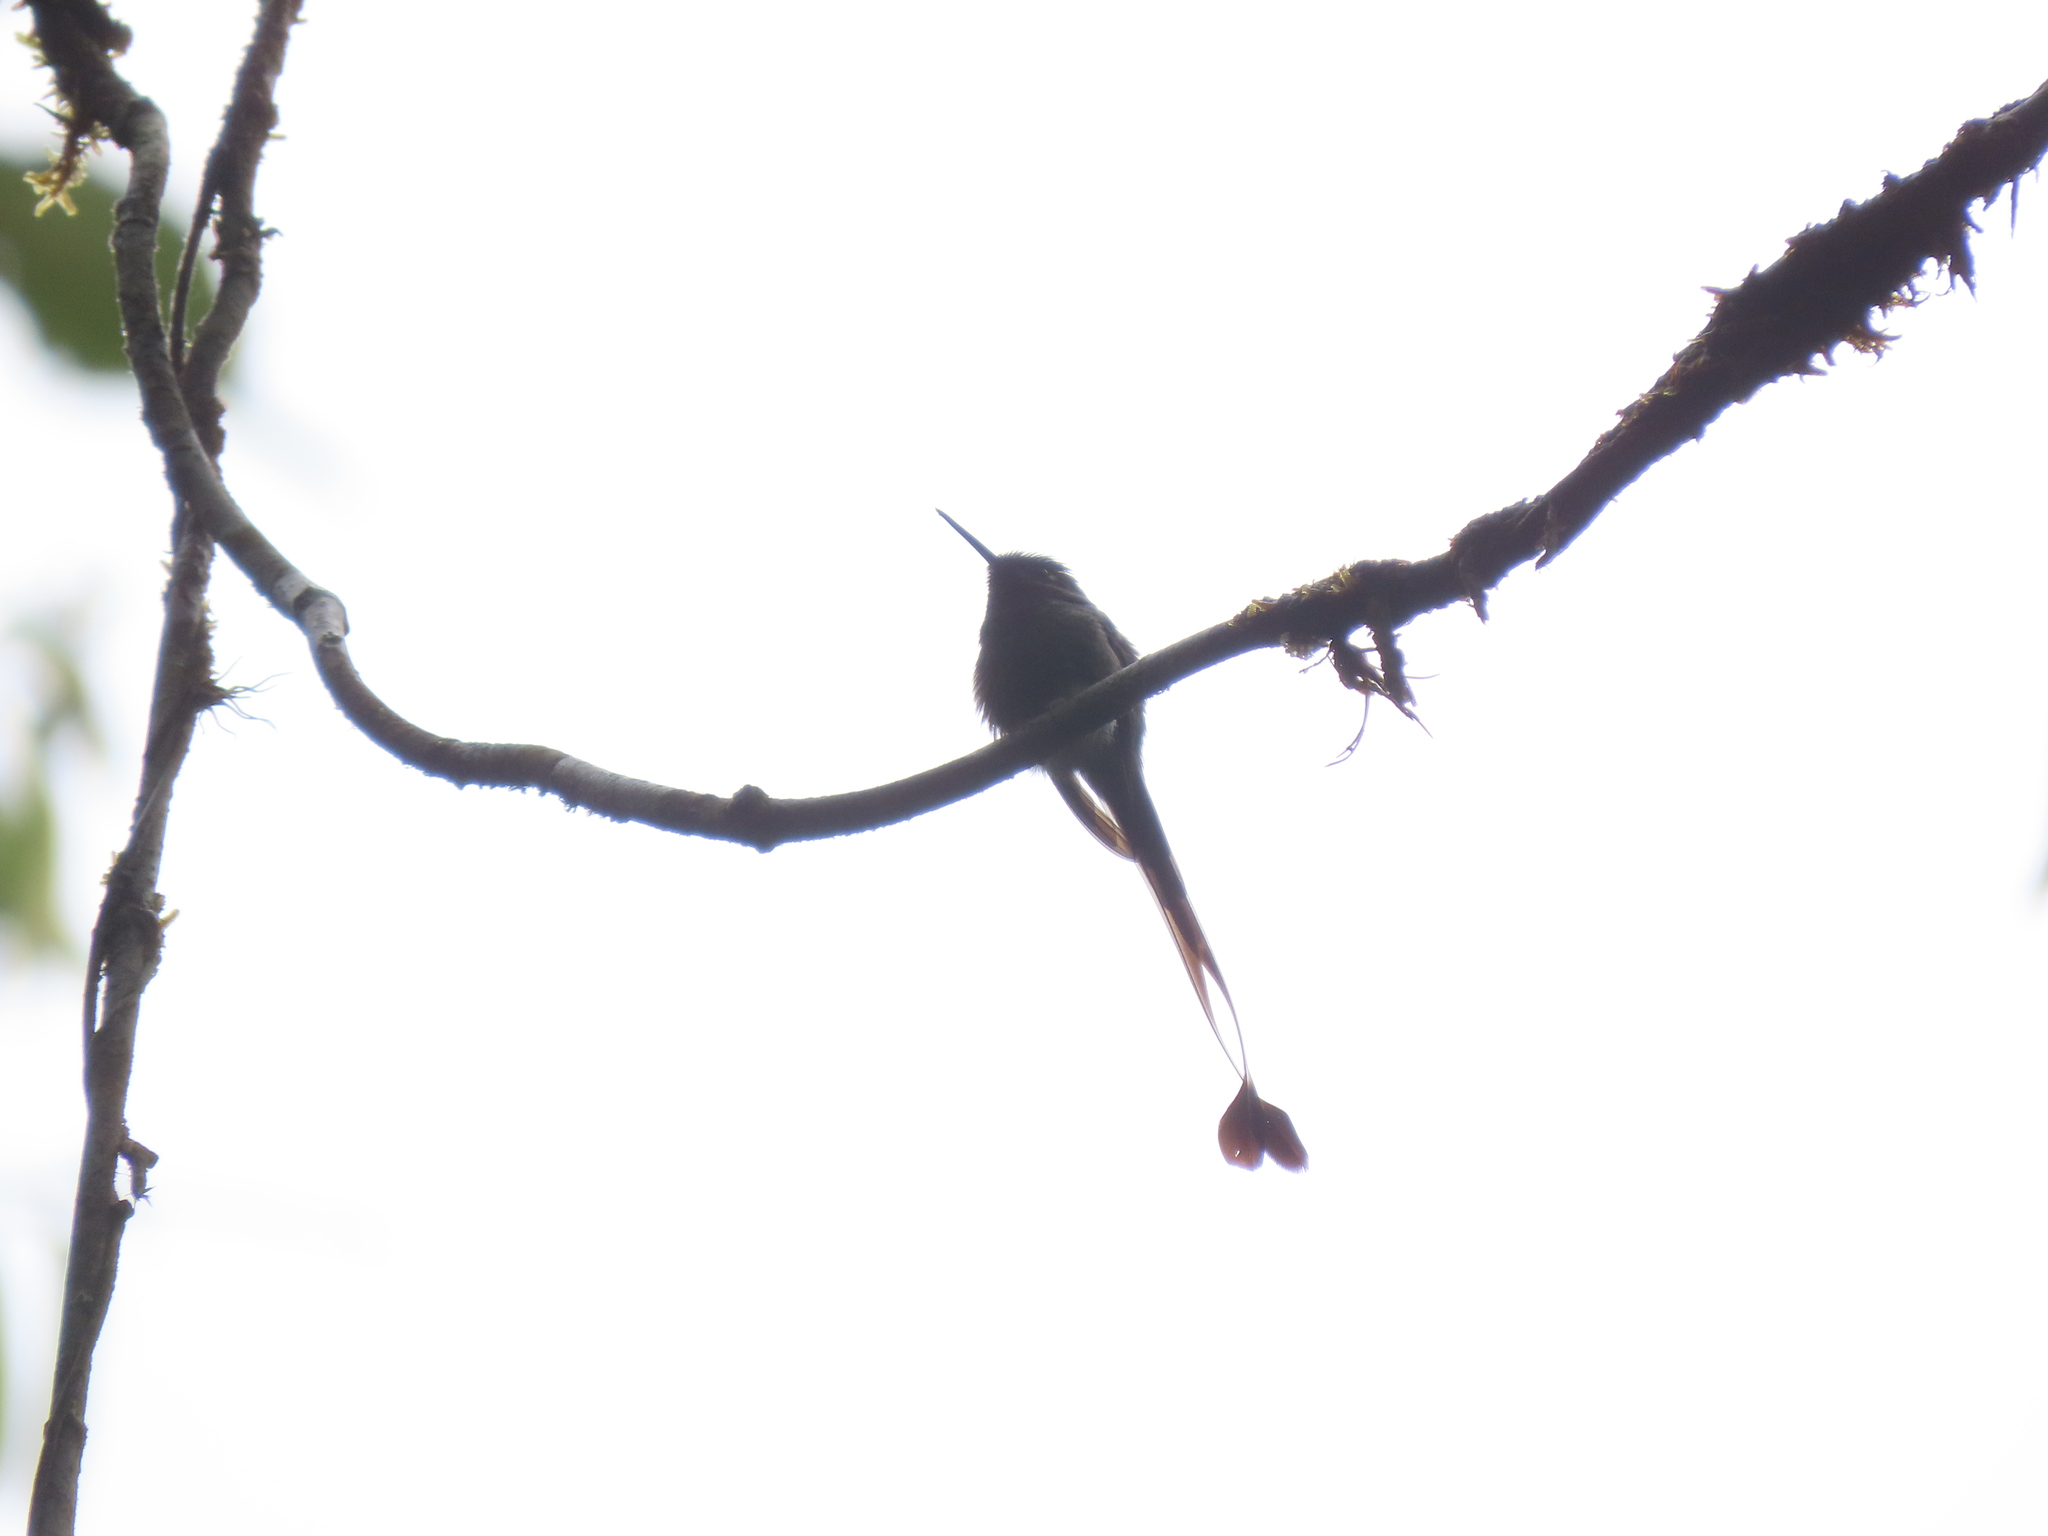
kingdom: Animalia
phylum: Chordata
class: Aves
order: Apodiformes
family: Trochilidae
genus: Ocreatus
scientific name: Ocreatus underwoodii
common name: Booted racket-tail
